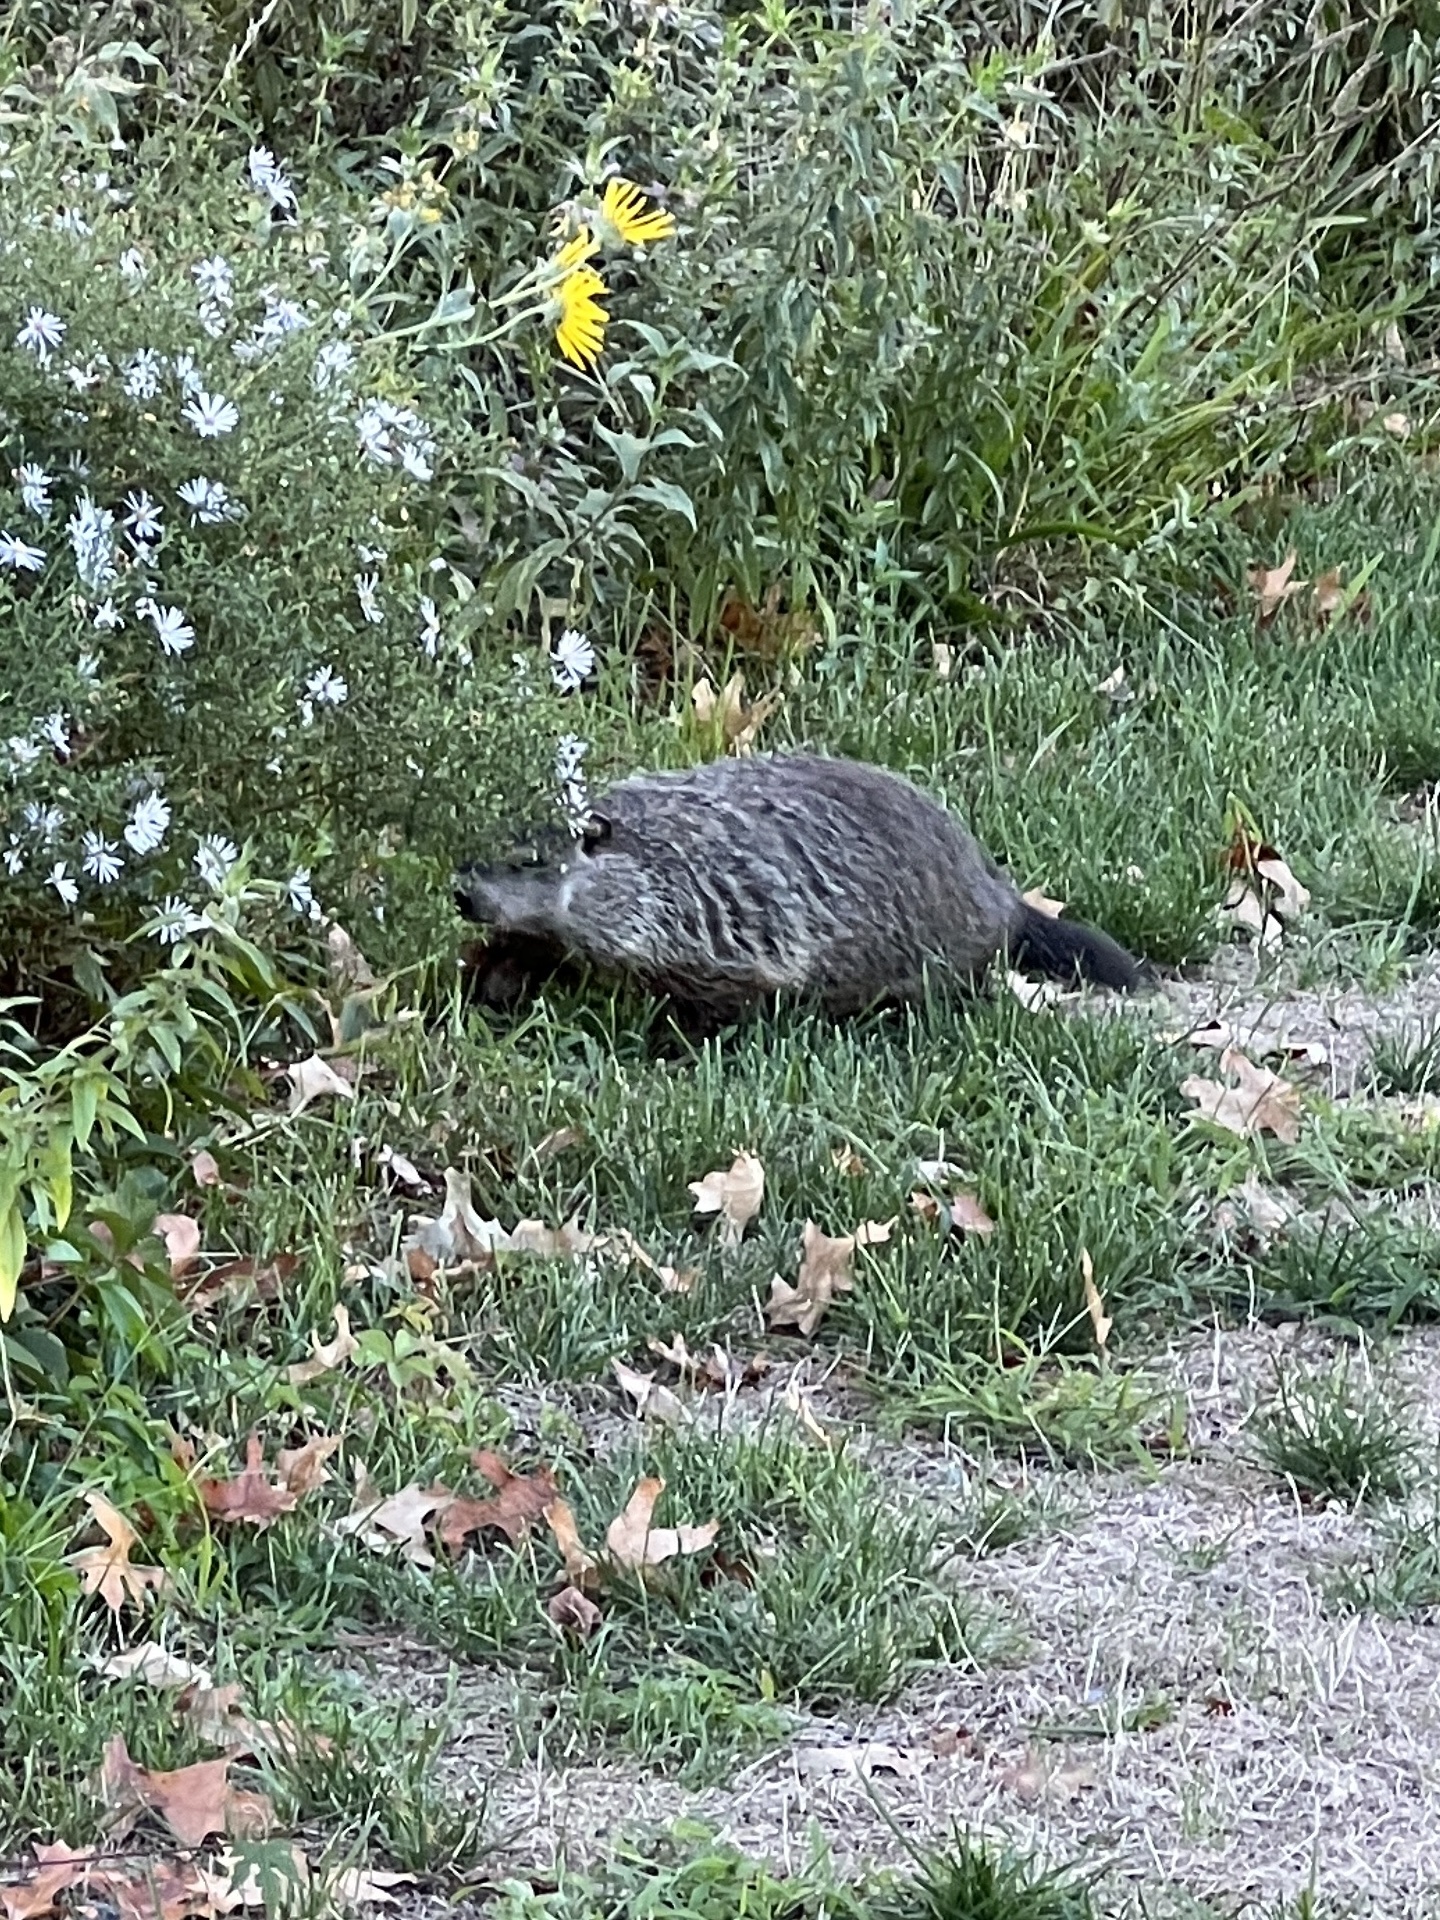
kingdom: Animalia
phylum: Chordata
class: Mammalia
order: Rodentia
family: Sciuridae
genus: Marmota
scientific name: Marmota monax
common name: Groundhog
